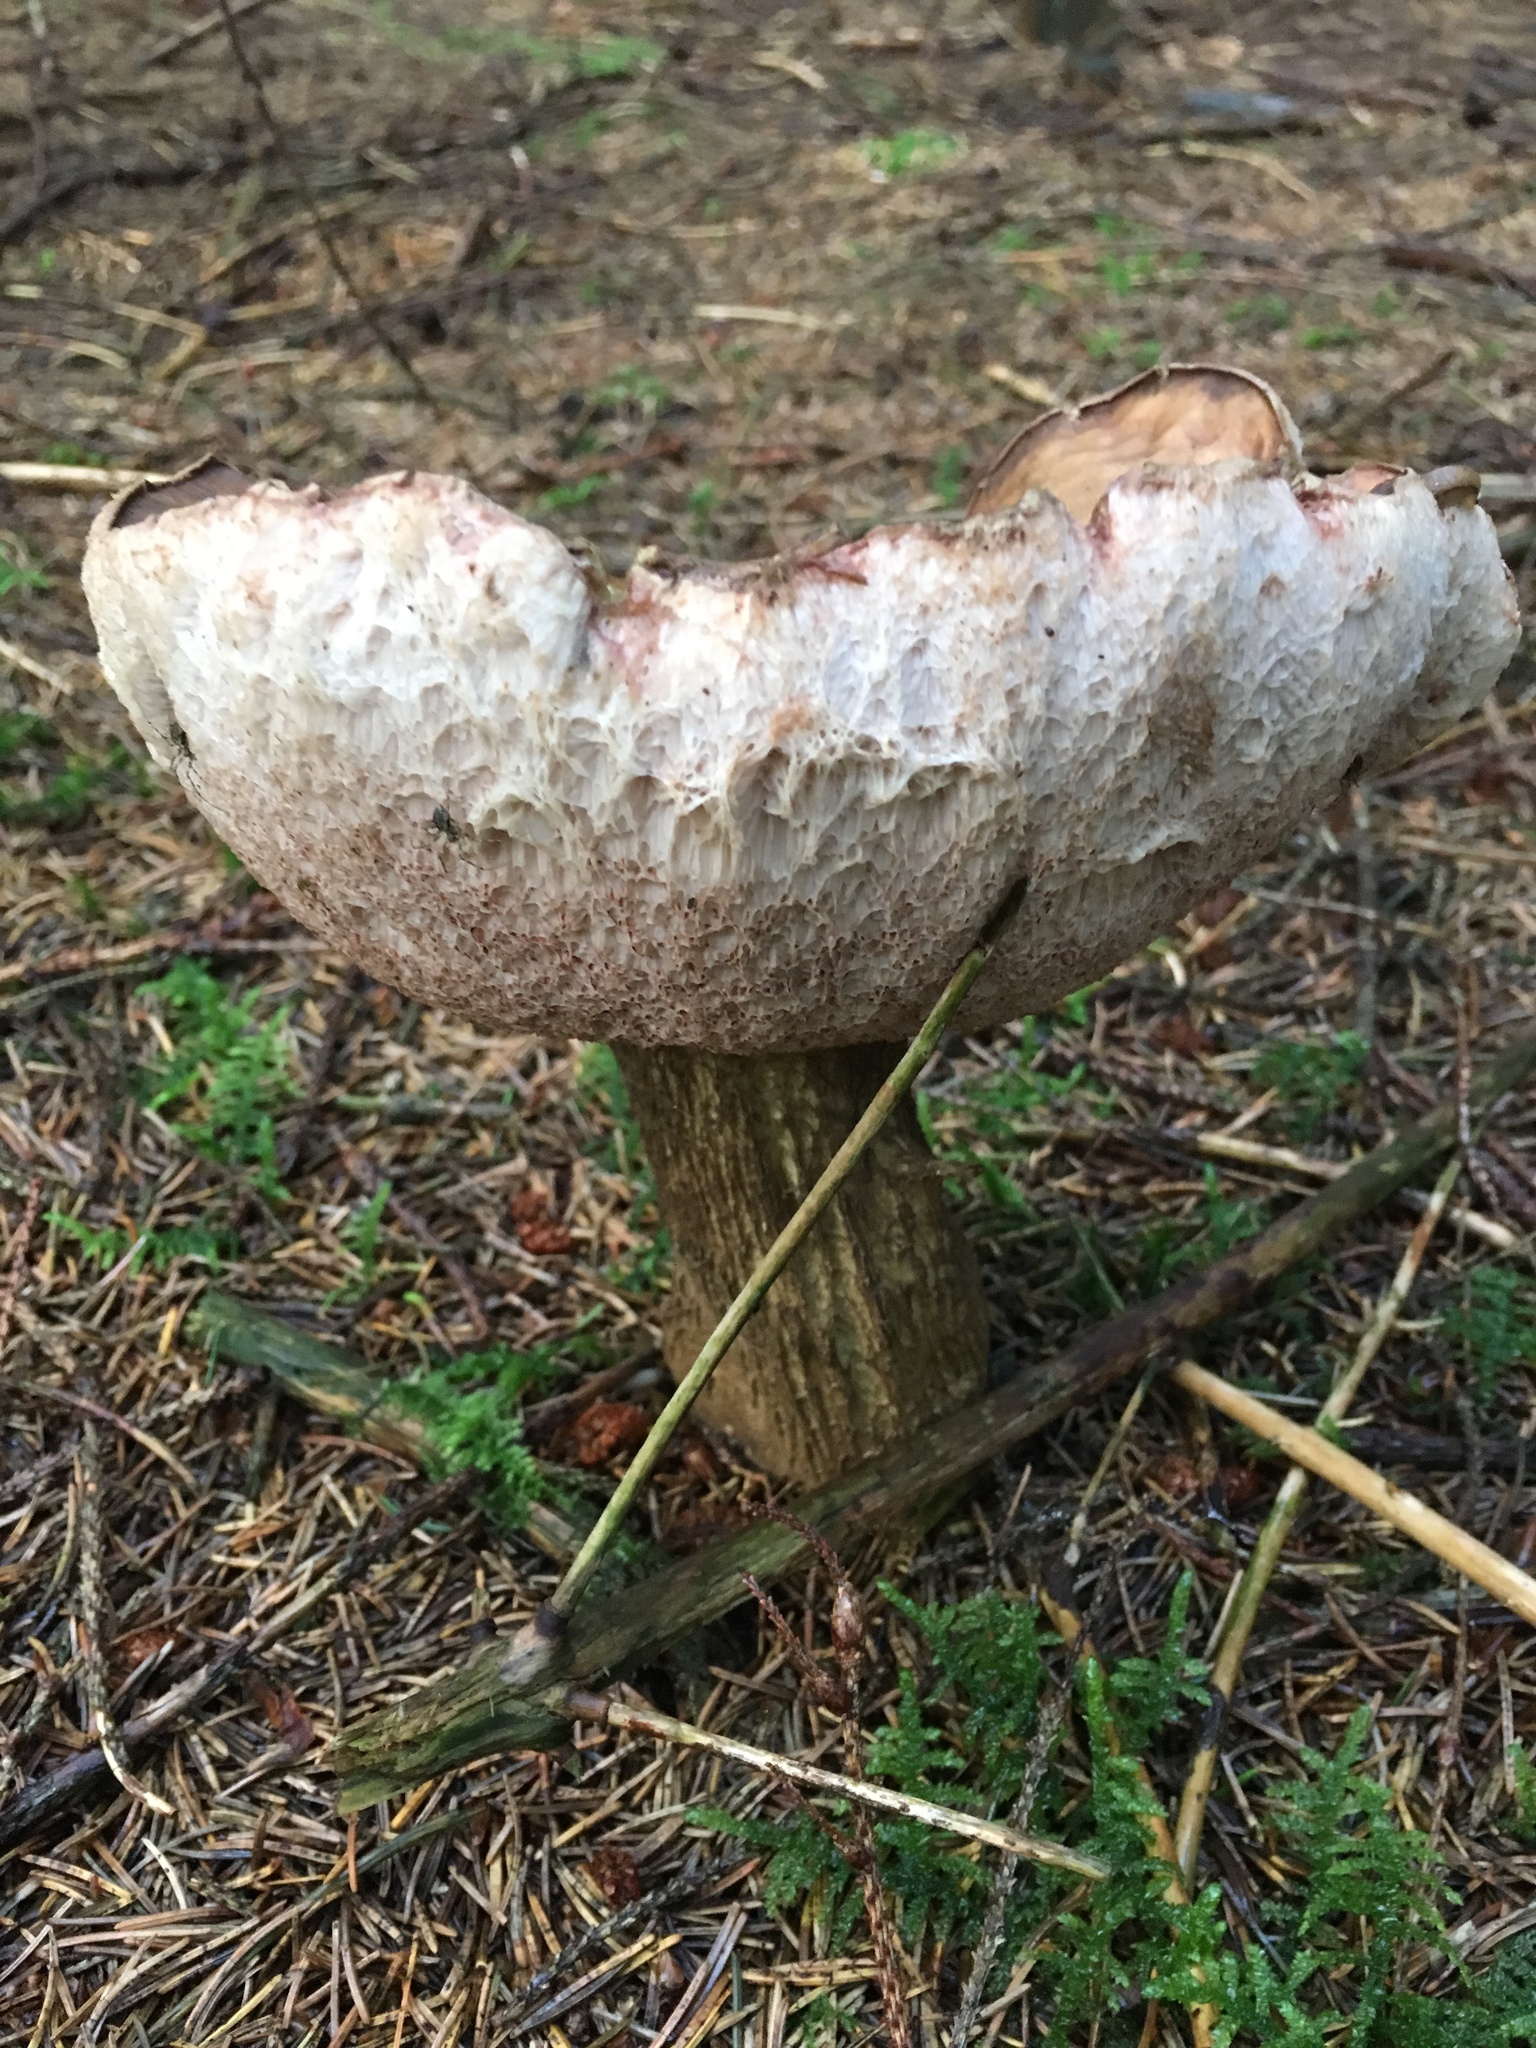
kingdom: Fungi
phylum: Basidiomycota
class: Agaricomycetes
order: Boletales
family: Boletaceae
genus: Tylopilus
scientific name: Tylopilus felleus
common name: Bitter bolete
